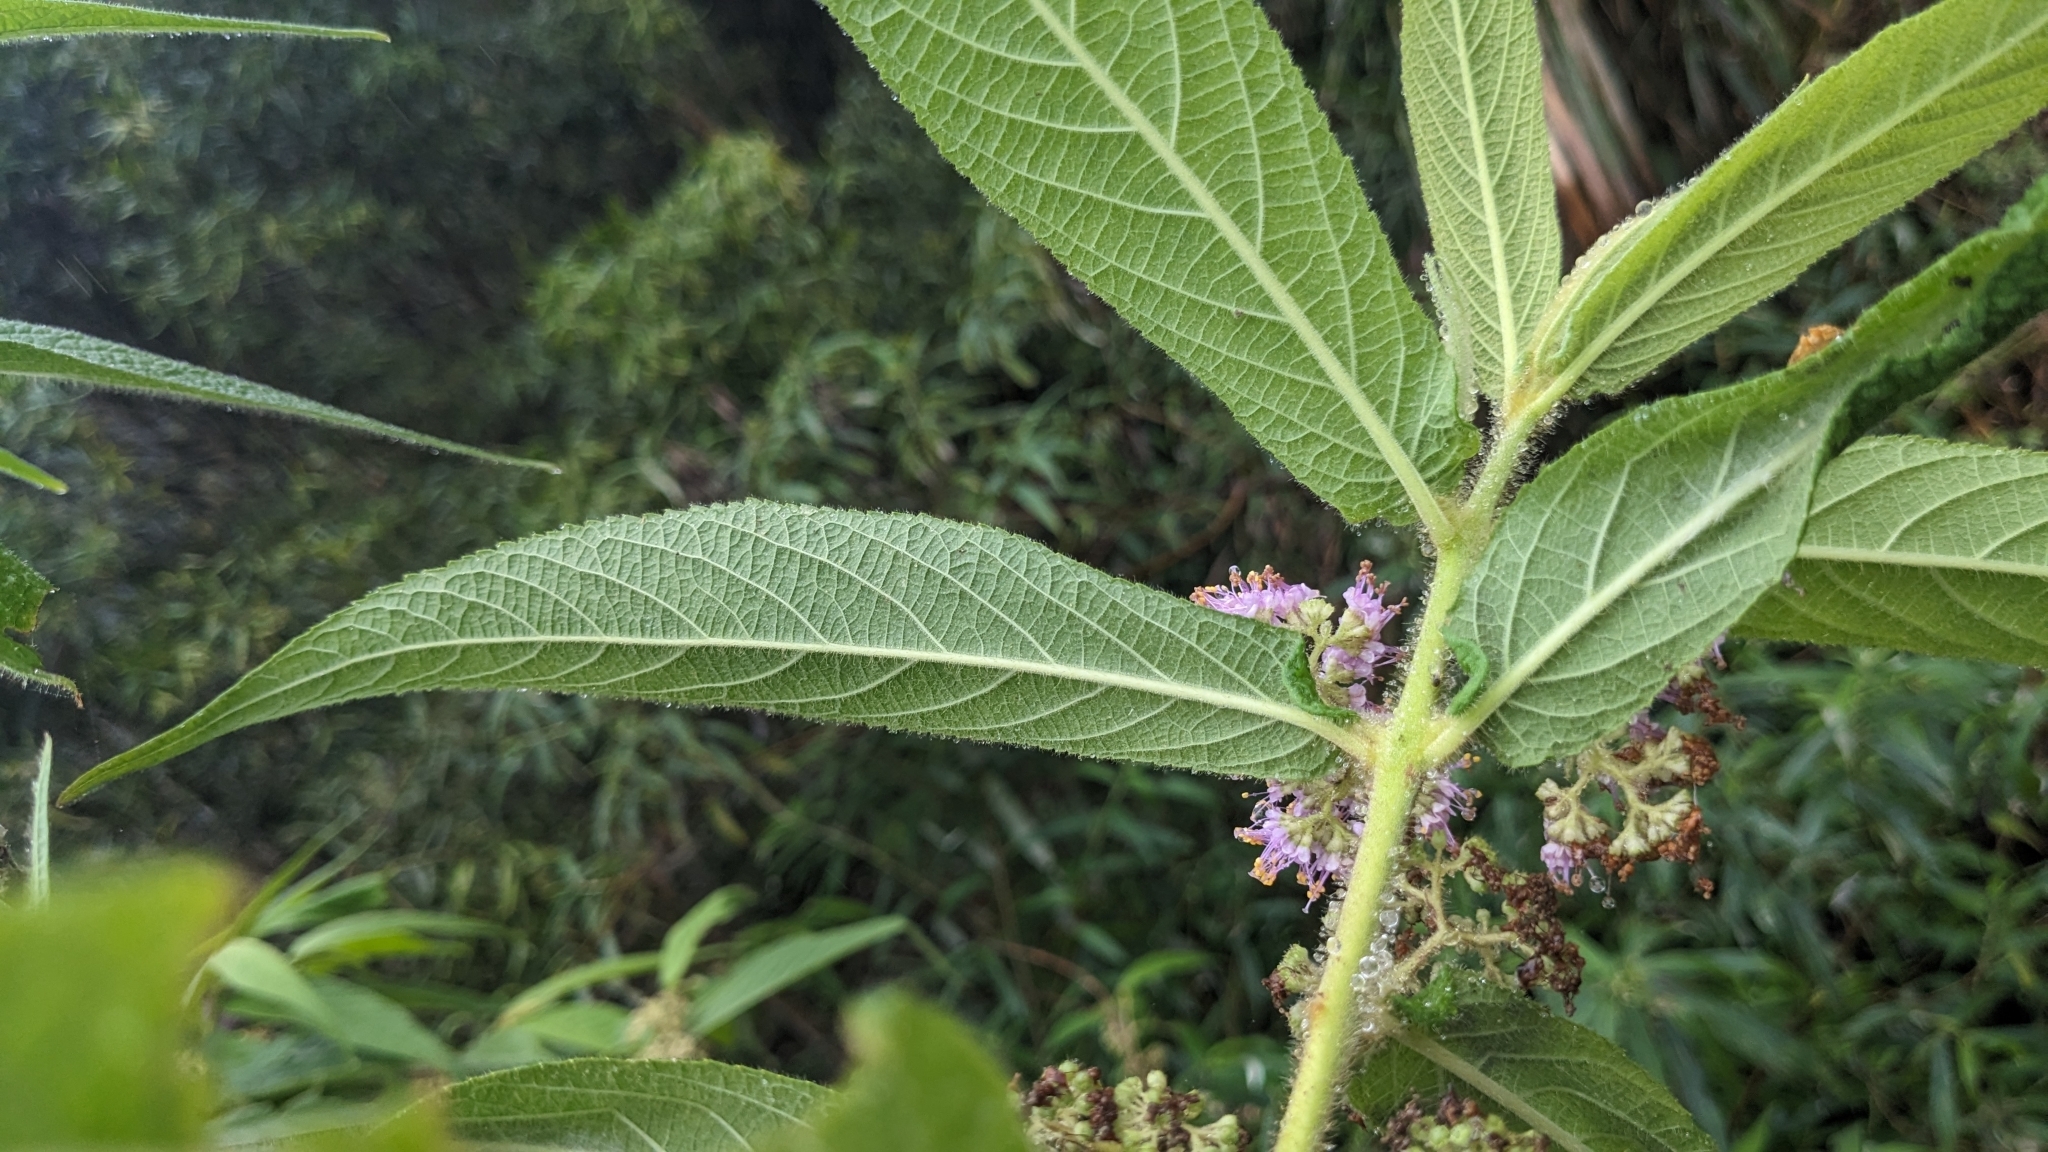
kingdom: Plantae
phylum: Tracheophyta
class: Magnoliopsida
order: Lamiales
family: Lamiaceae
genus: Callicarpa
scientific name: Callicarpa pilosissima
